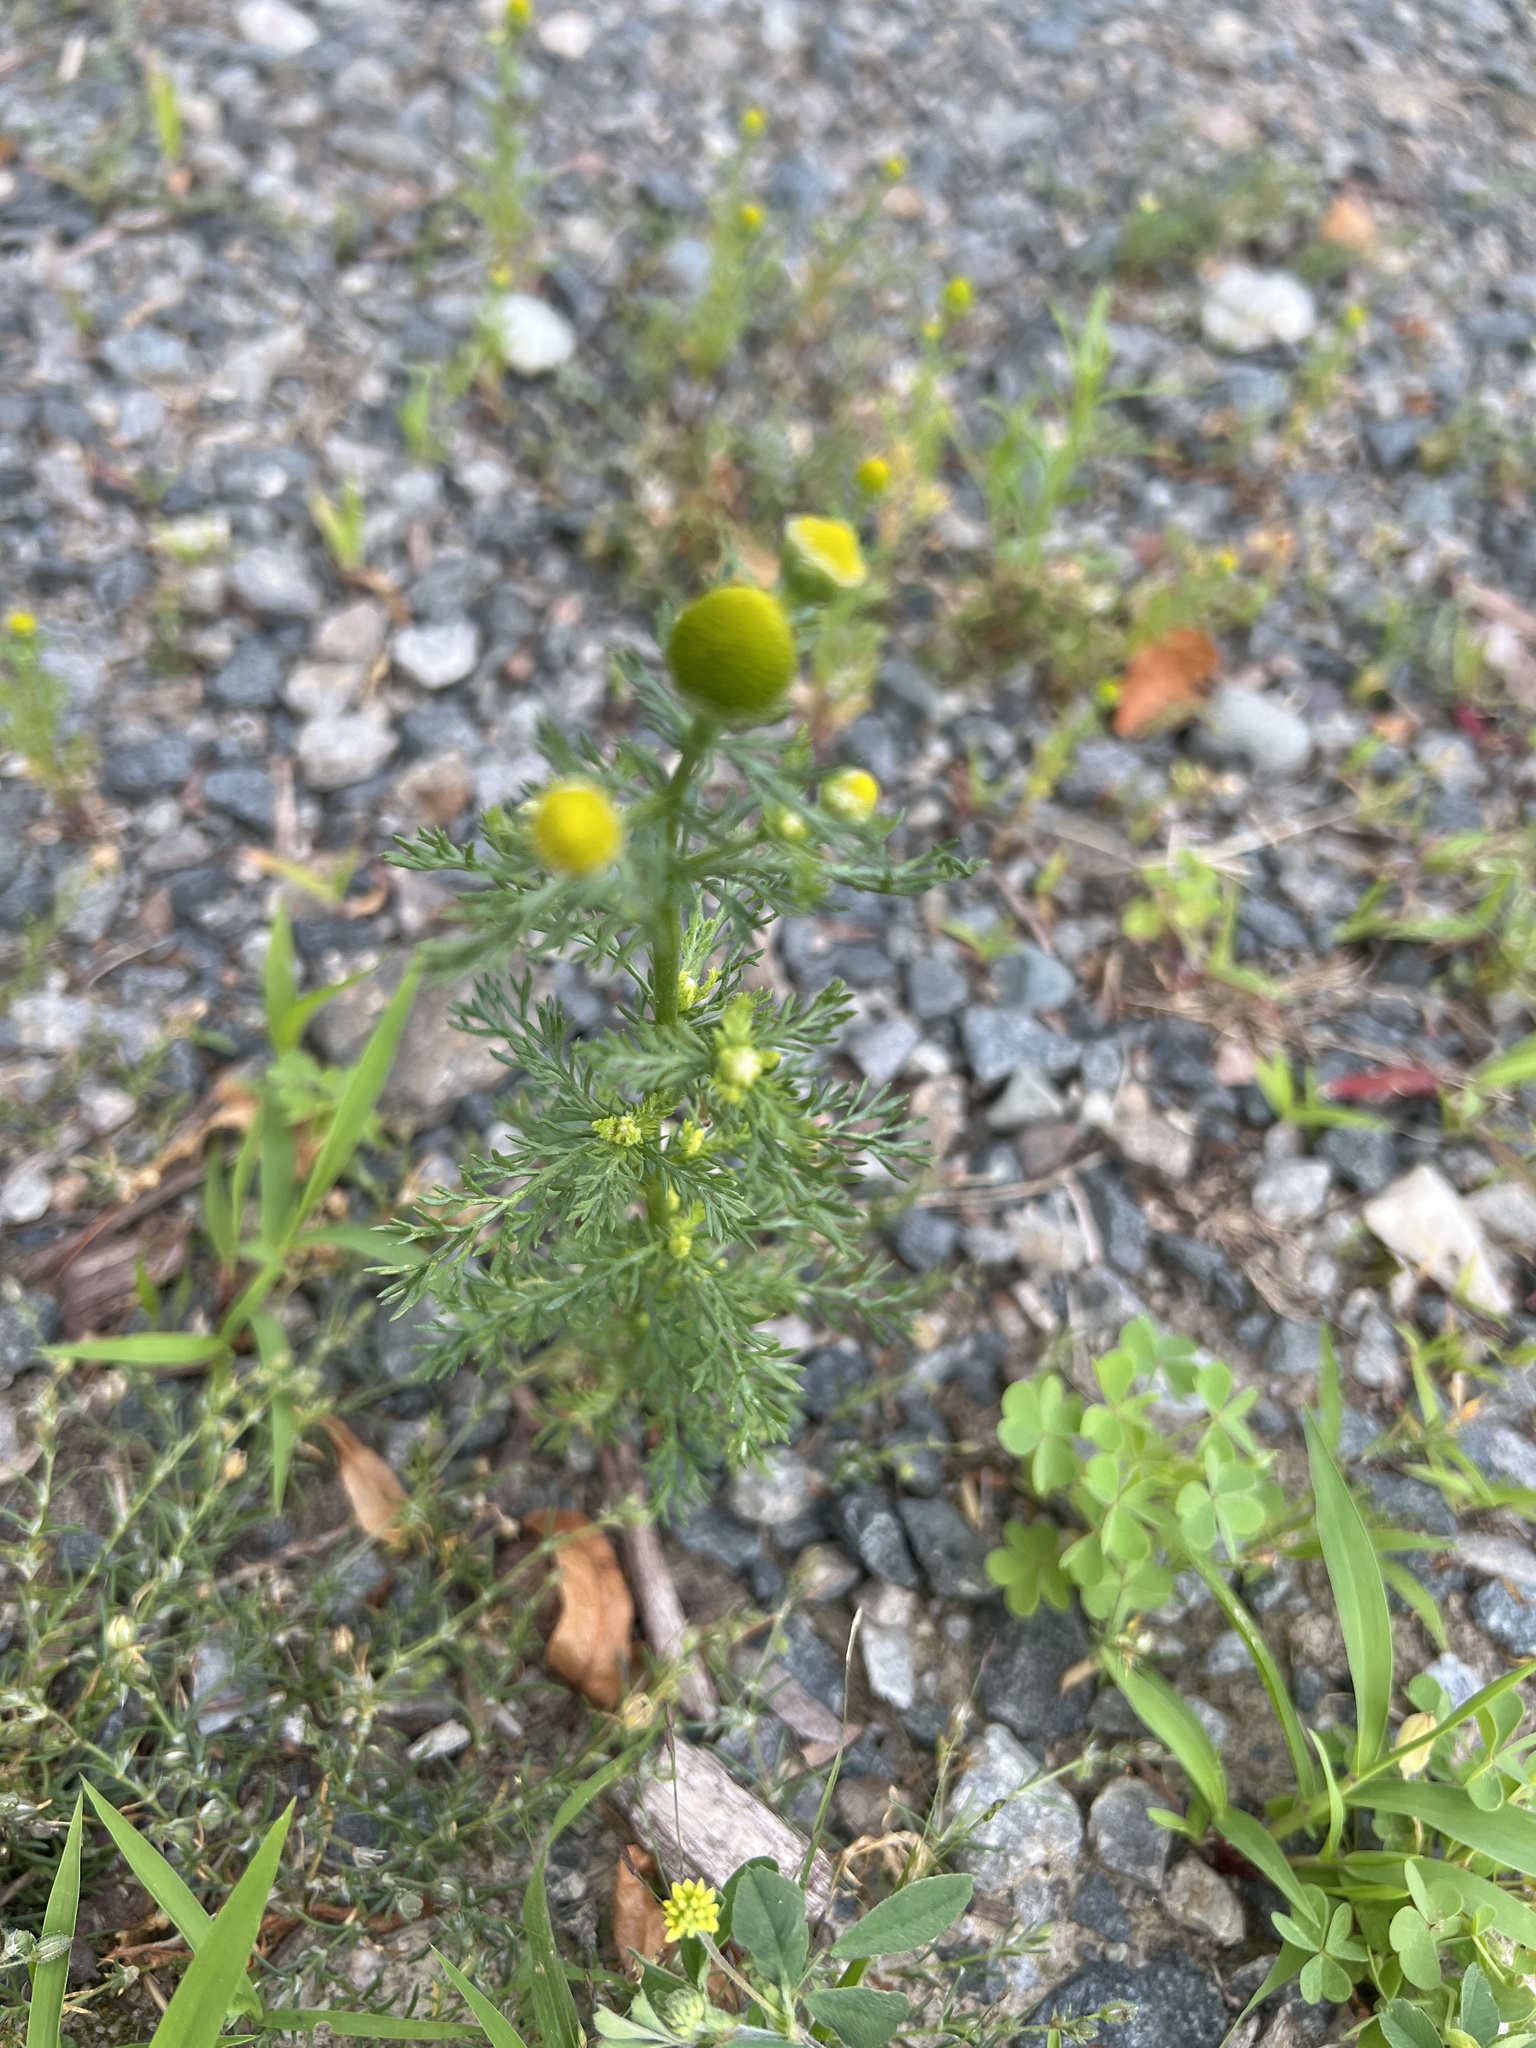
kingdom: Plantae
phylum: Tracheophyta
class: Magnoliopsida
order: Asterales
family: Asteraceae
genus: Matricaria
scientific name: Matricaria discoidea
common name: Disc mayweed
